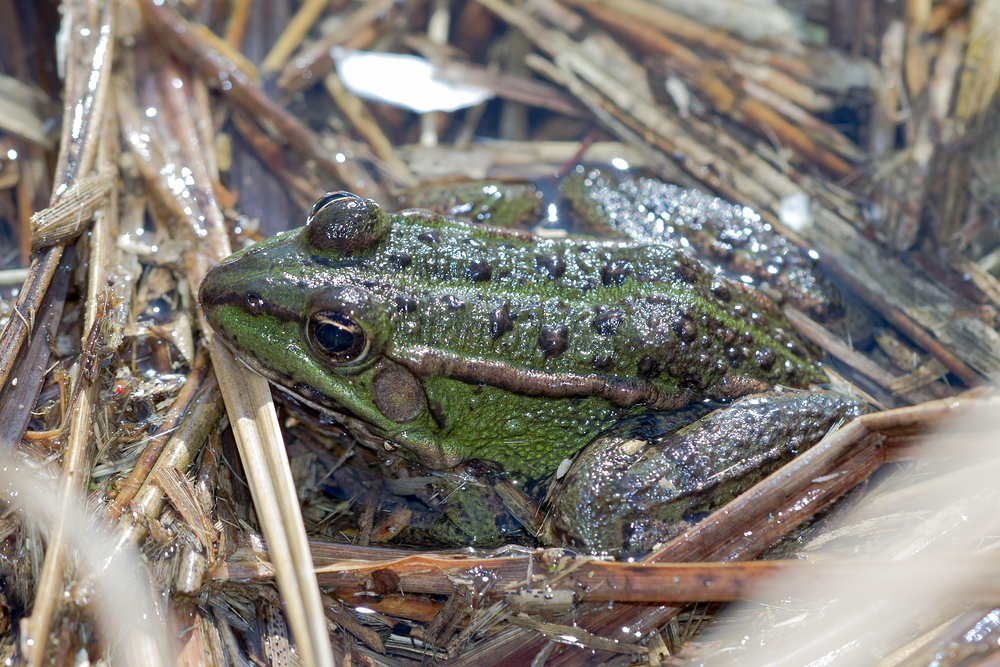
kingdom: Animalia
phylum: Chordata
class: Amphibia
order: Anura
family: Ranidae
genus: Pelophylax
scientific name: Pelophylax
